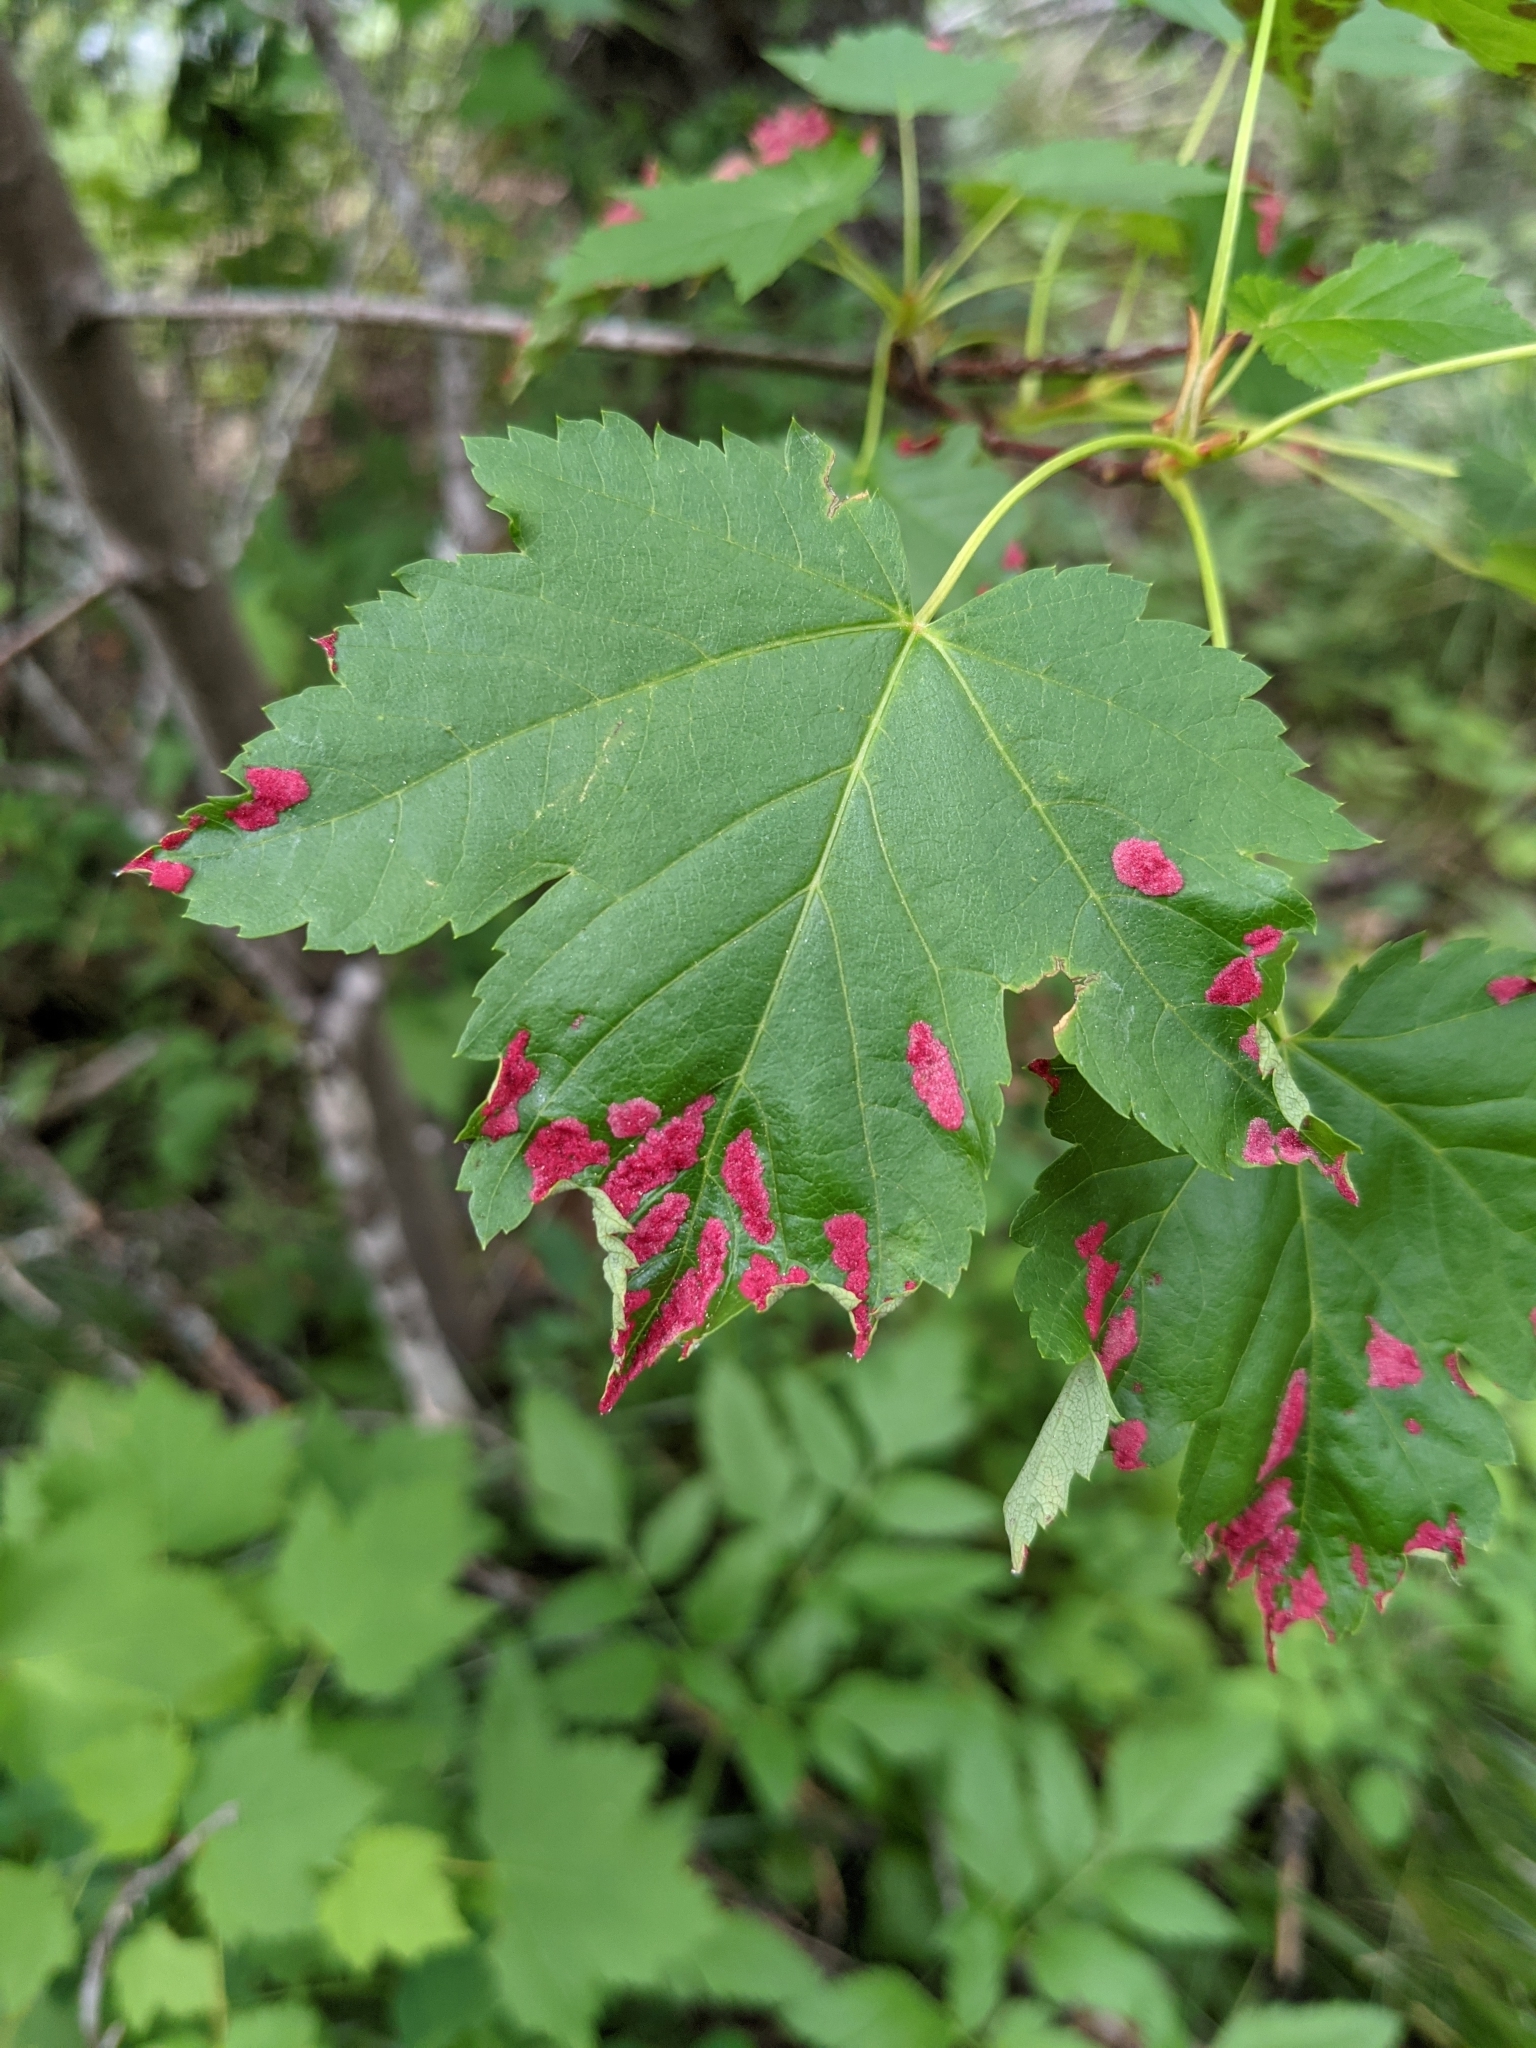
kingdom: Animalia
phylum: Arthropoda
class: Arachnida
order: Trombidiformes
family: Eriophyidae
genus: Aceria
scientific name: Aceria
